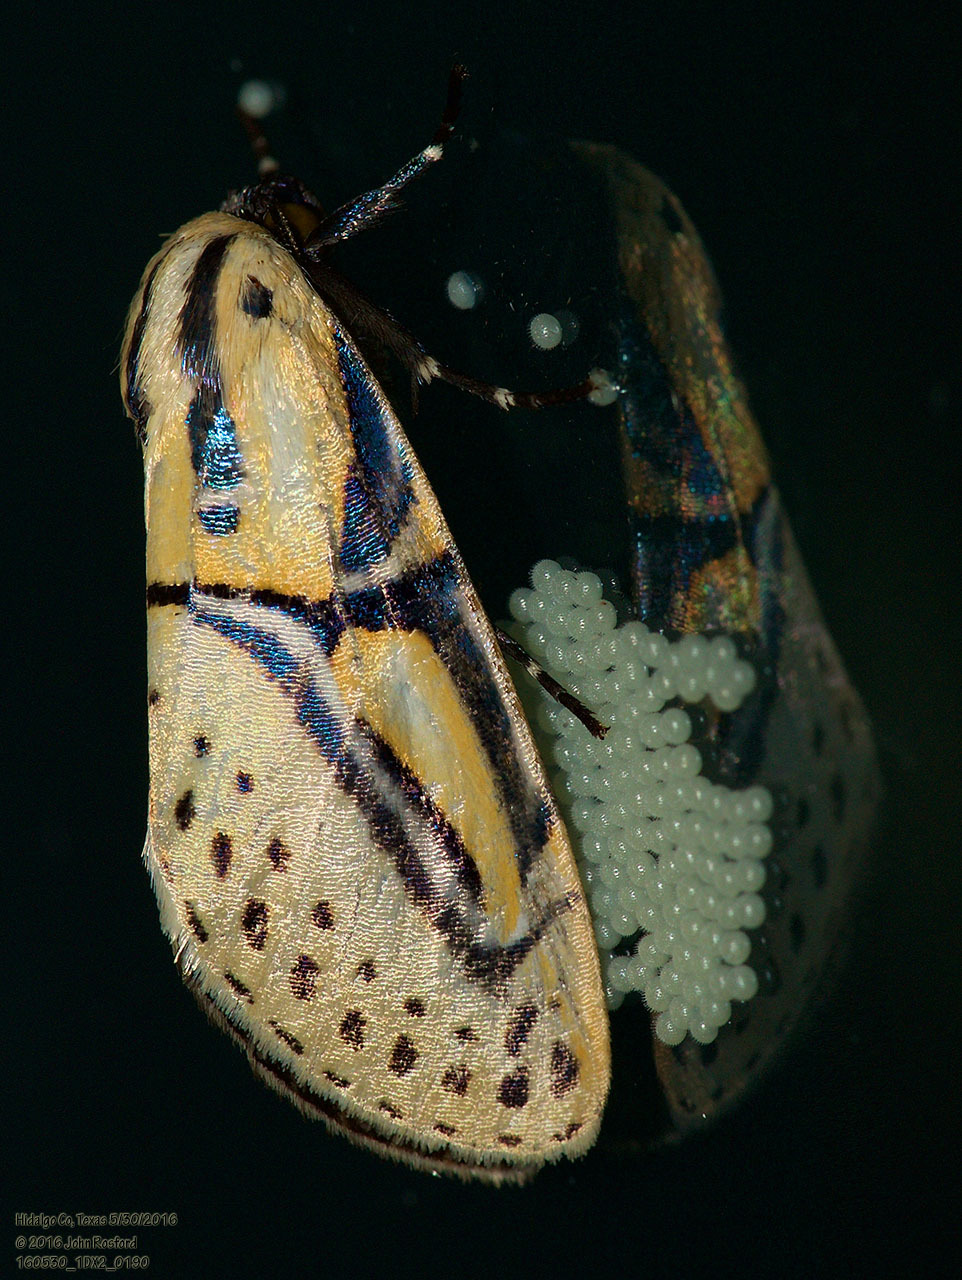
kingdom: Animalia
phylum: Arthropoda
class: Insecta
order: Lepidoptera
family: Erebidae
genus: Diphthera
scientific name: Diphthera festiva
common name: Hieroglyphic moth
